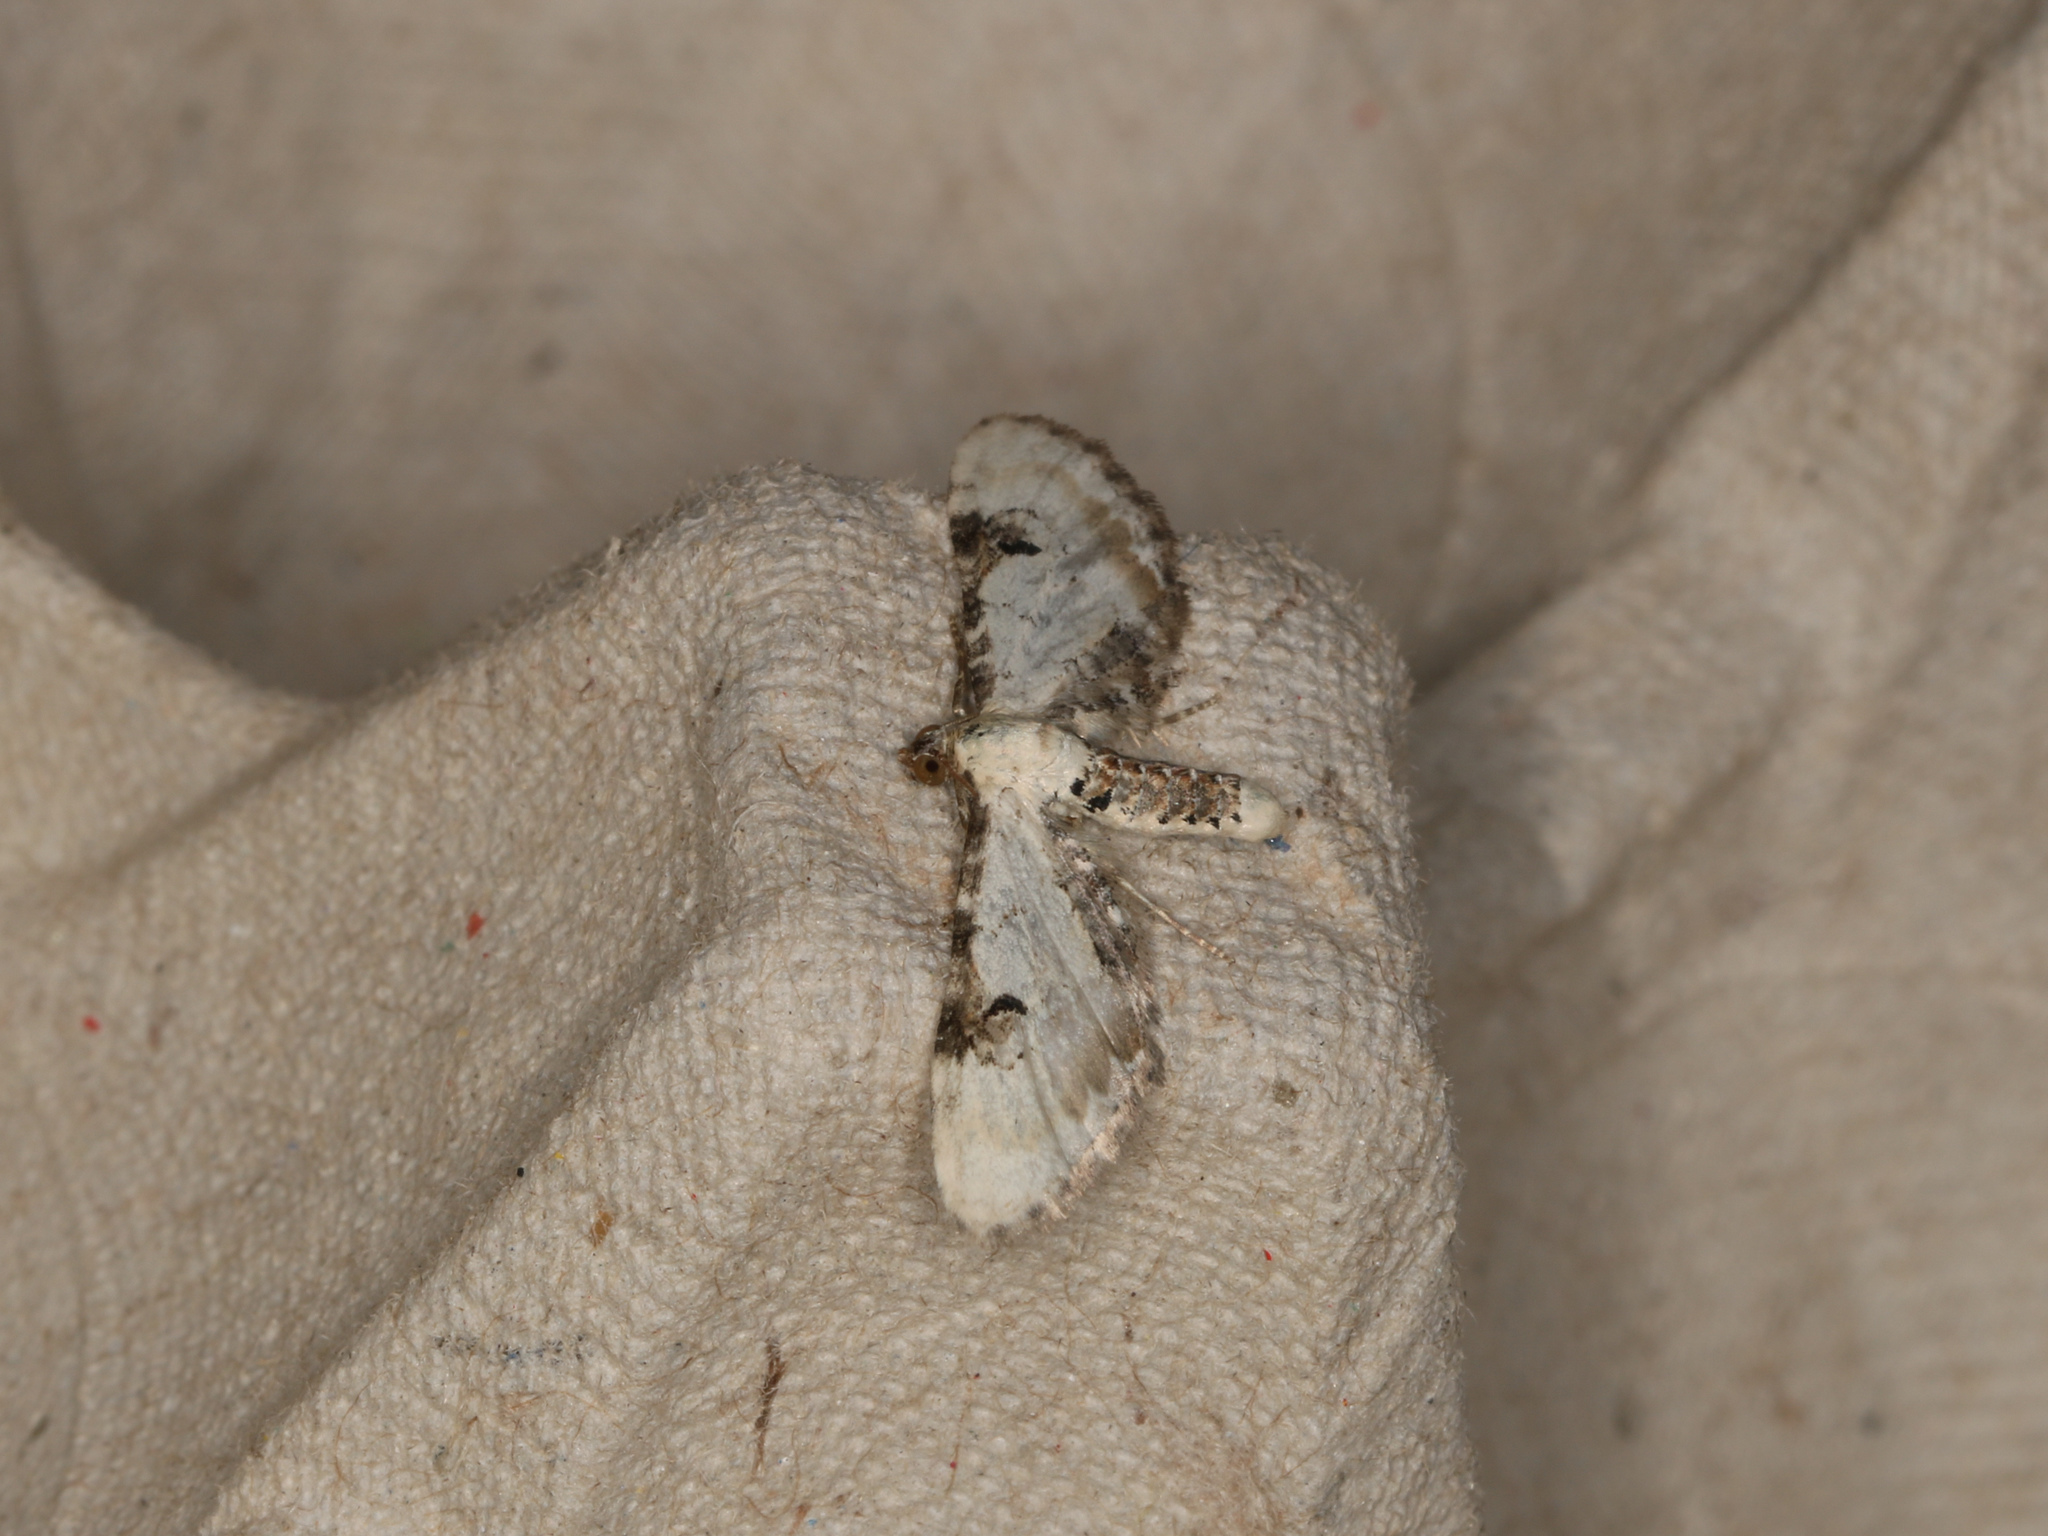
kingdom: Animalia
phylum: Arthropoda
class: Insecta
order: Lepidoptera
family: Geometridae
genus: Eupithecia
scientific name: Eupithecia centaureata
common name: Lime-speck pug
